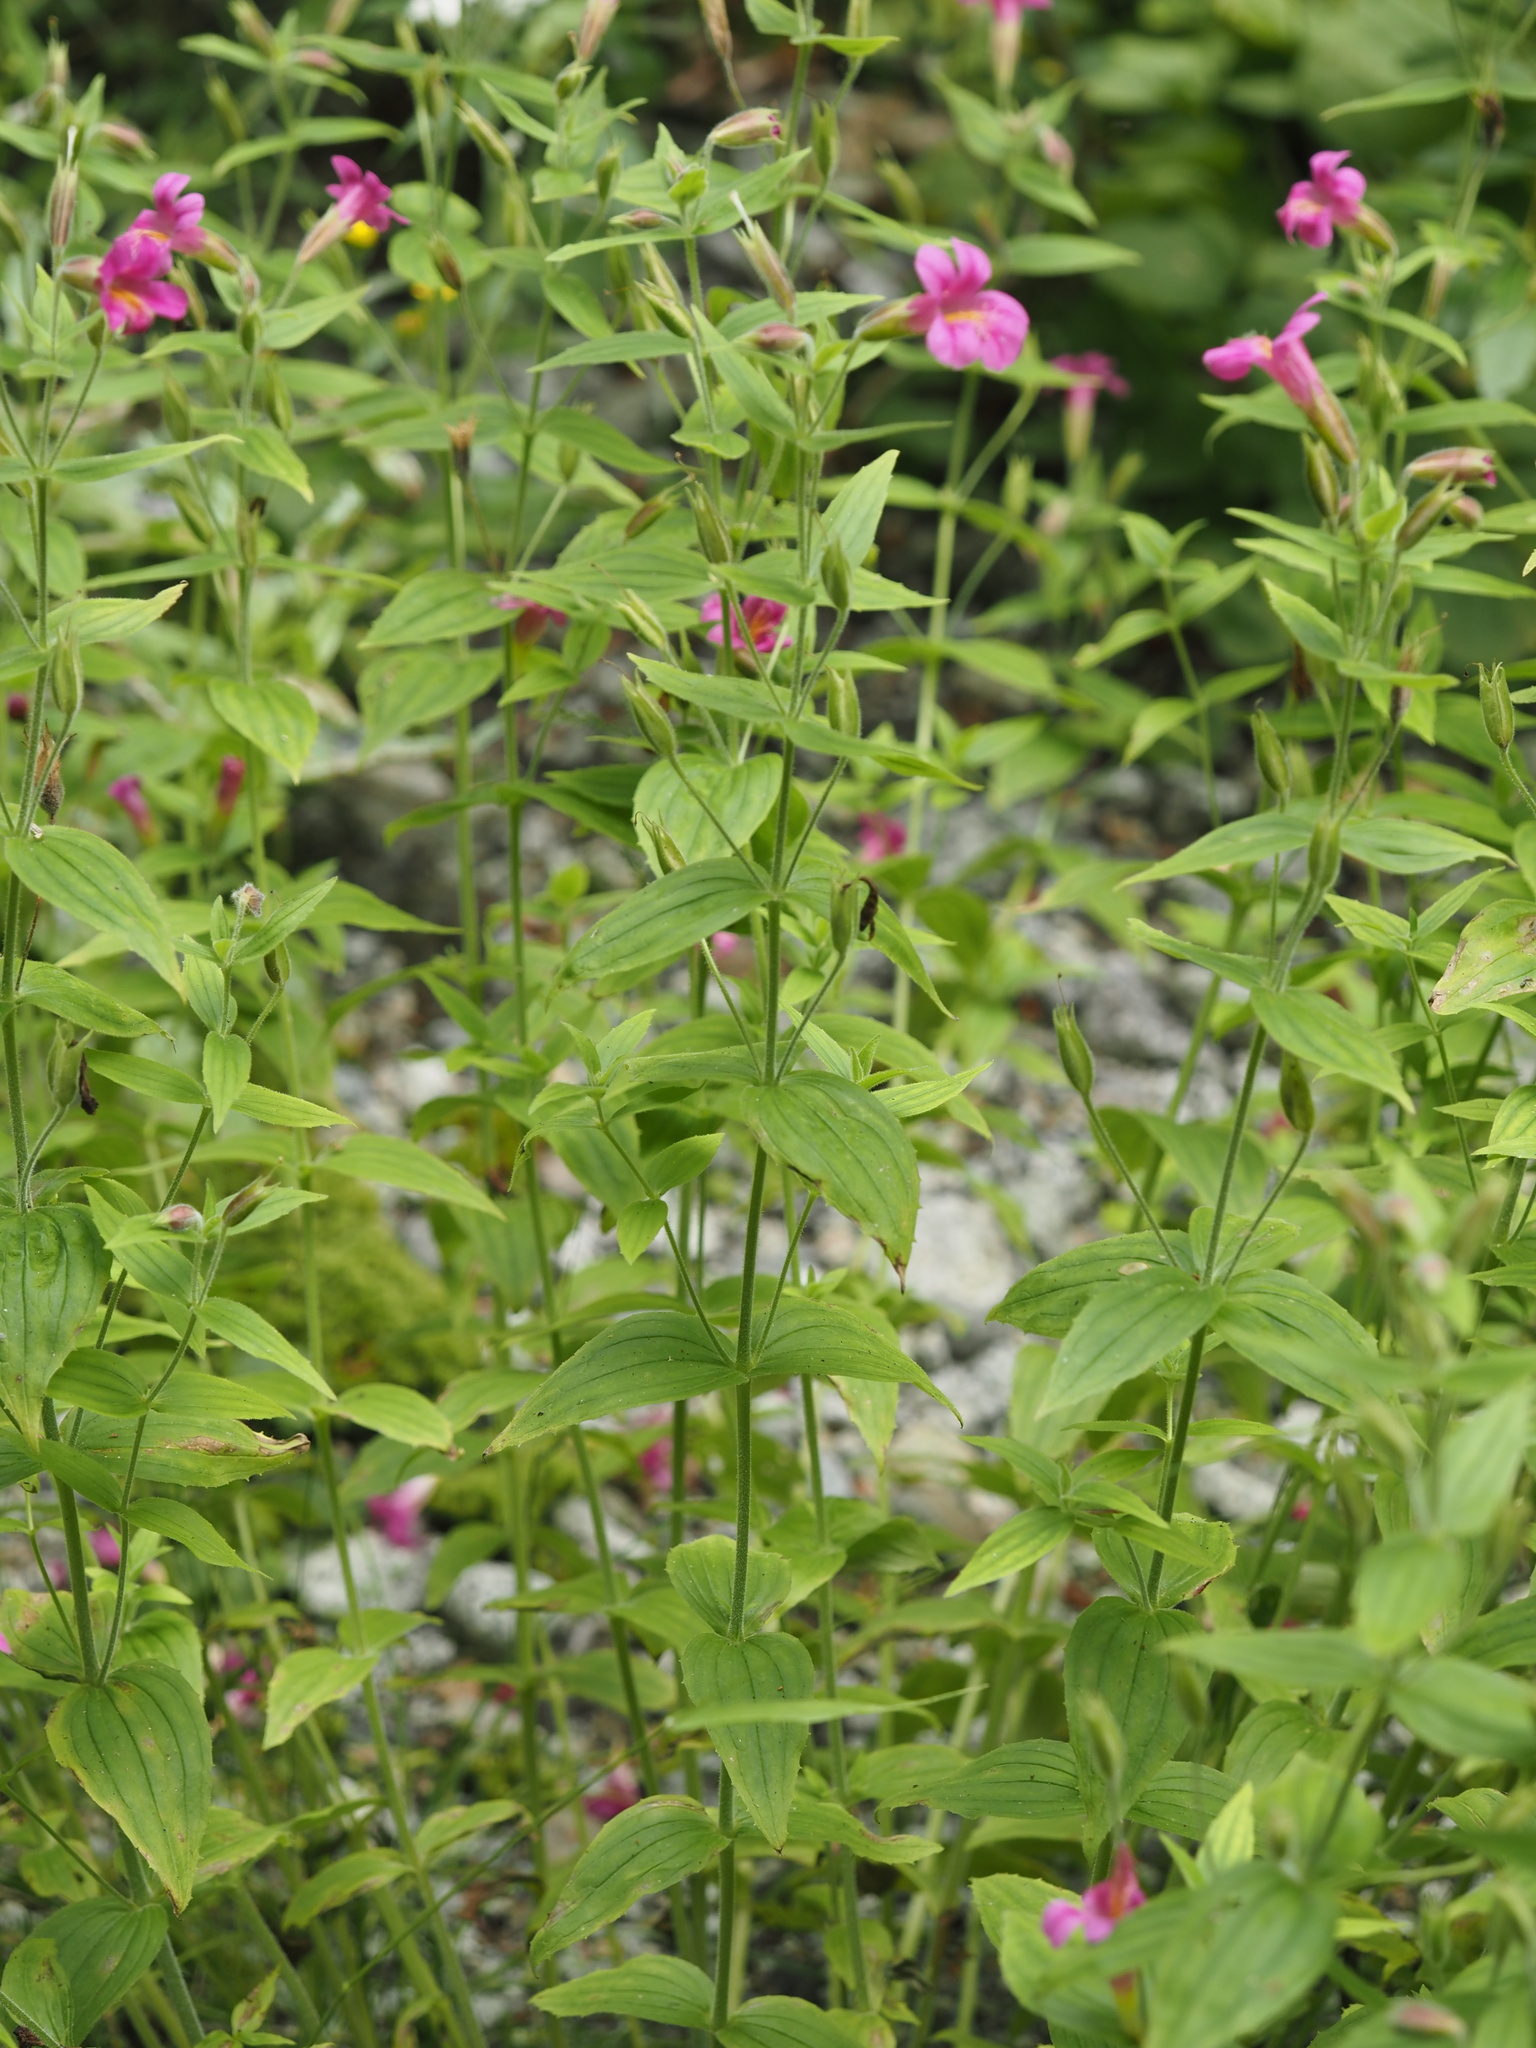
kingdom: Plantae
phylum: Tracheophyta
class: Magnoliopsida
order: Lamiales
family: Phrymaceae
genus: Erythranthe
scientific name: Erythranthe lewisii
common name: Lewis's monkey-flower
